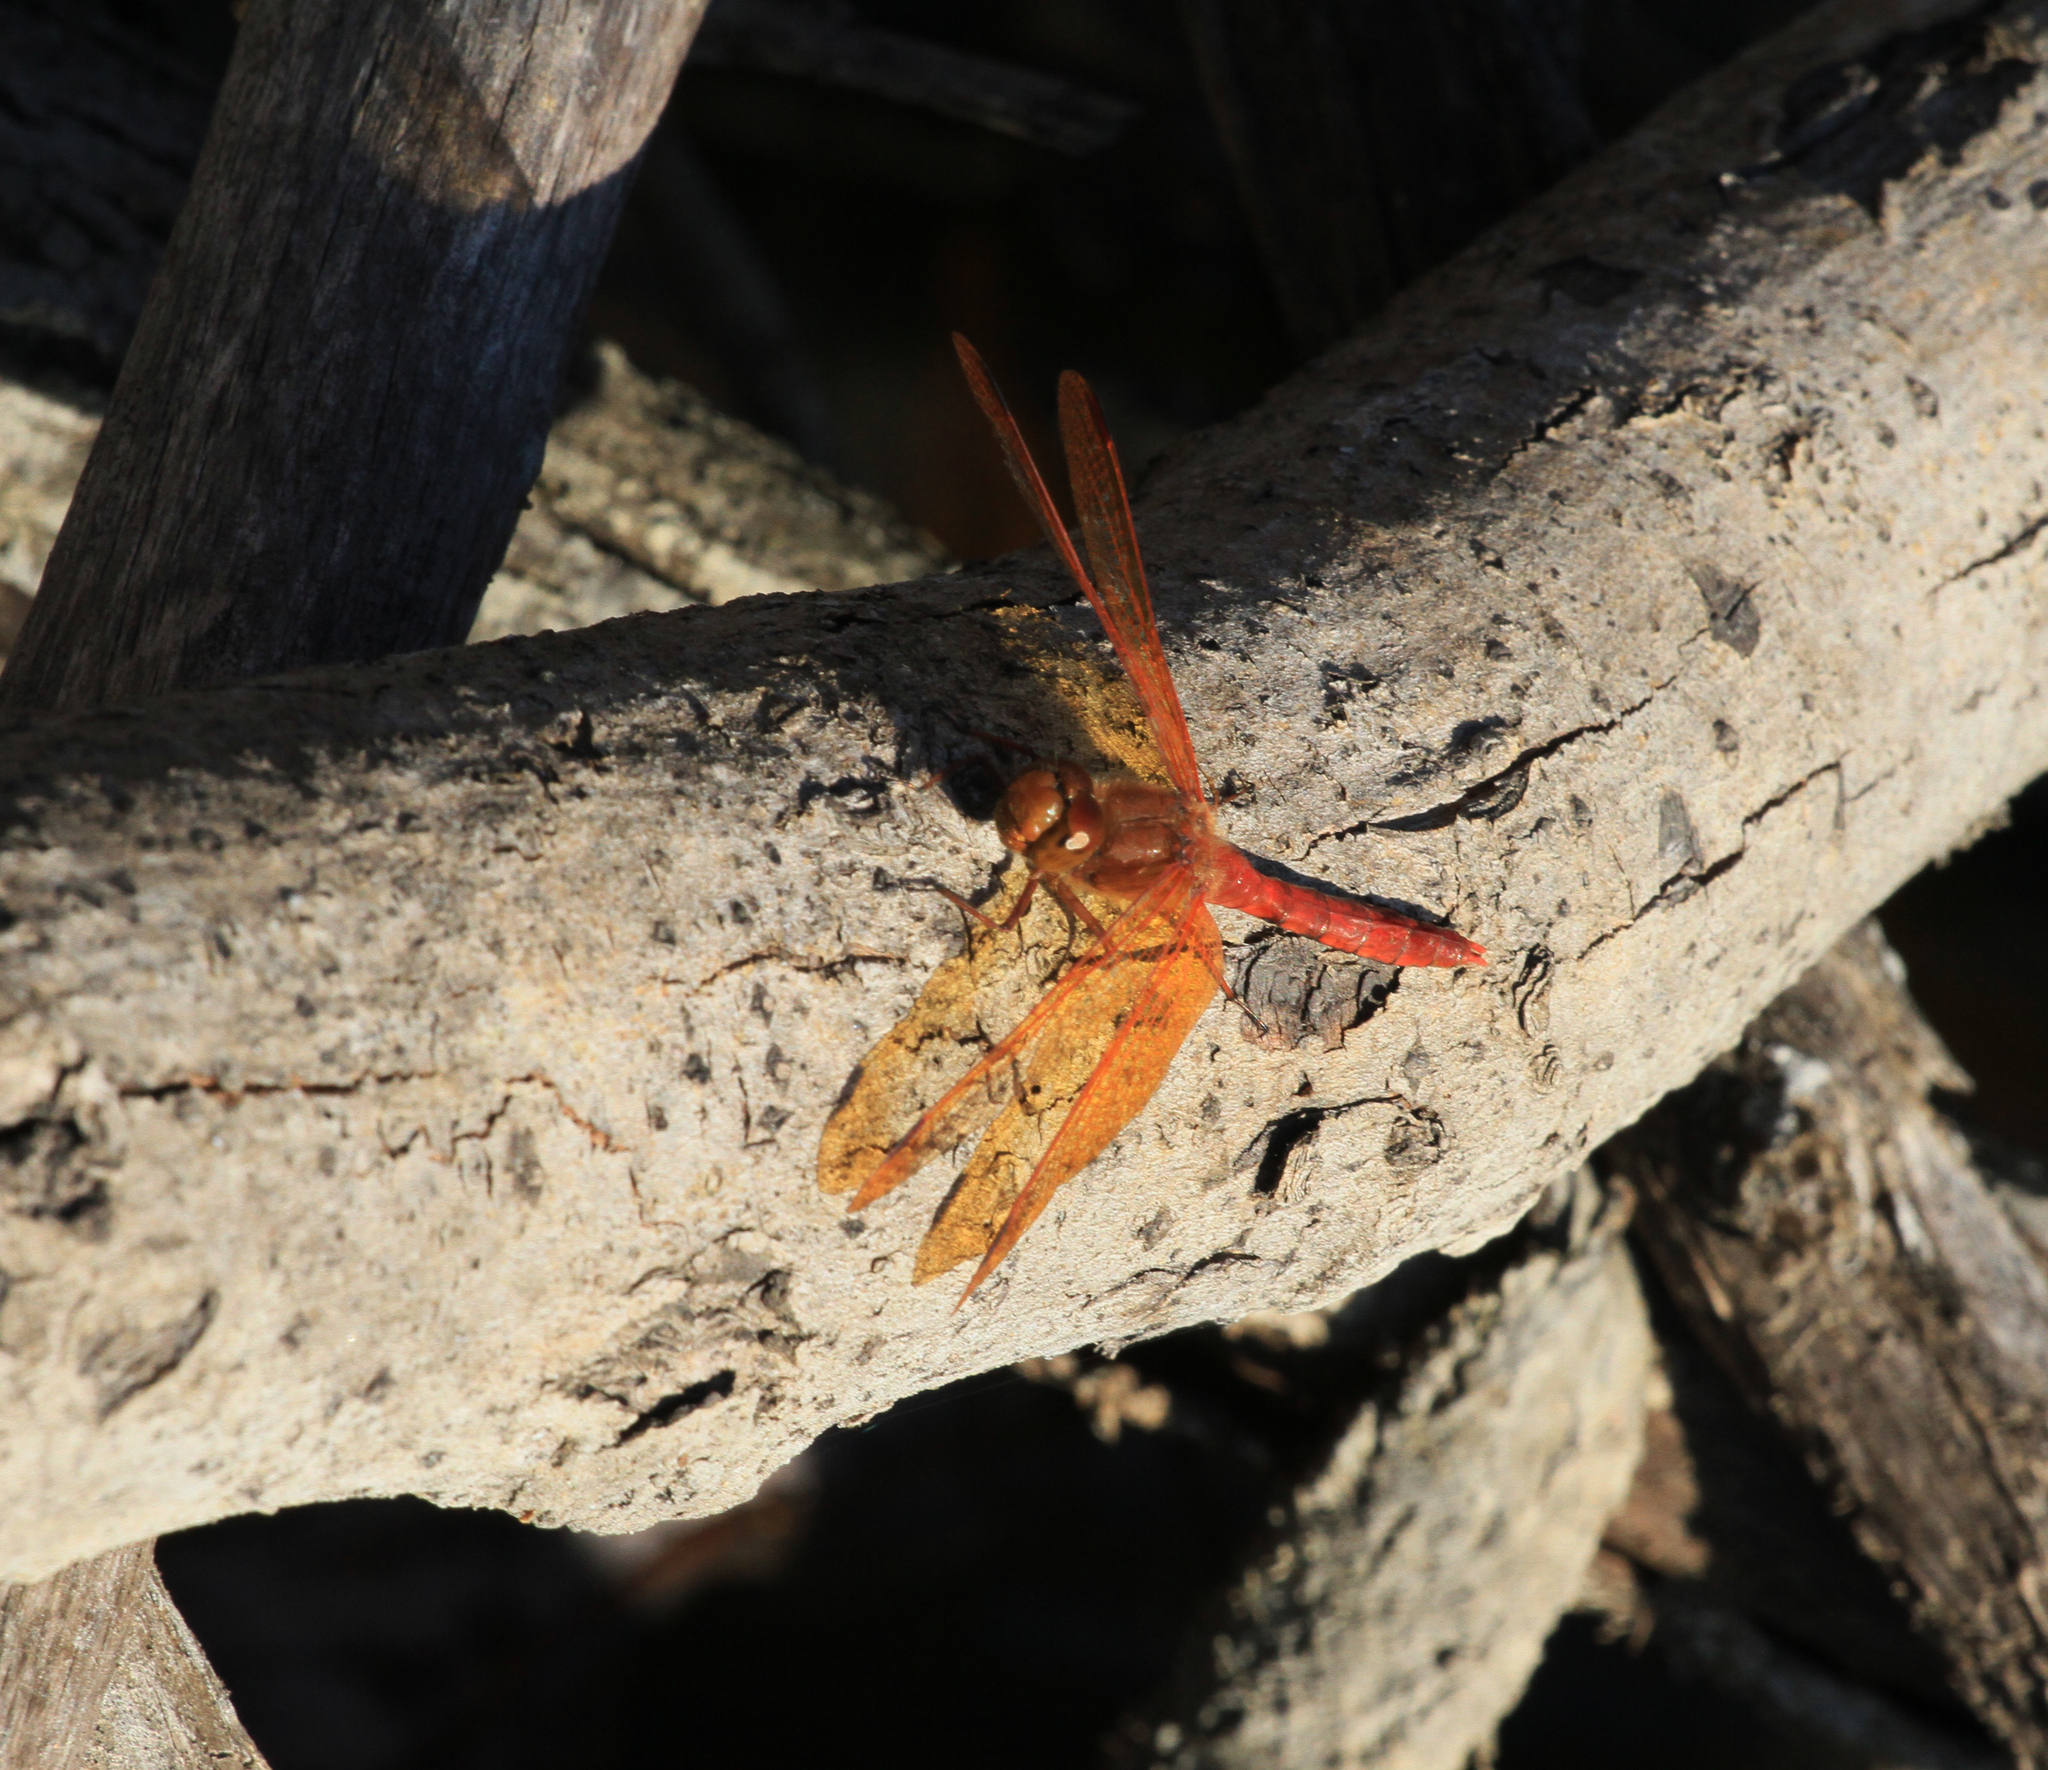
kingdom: Animalia
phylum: Arthropoda
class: Insecta
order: Odonata
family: Libellulidae
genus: Sympetrum
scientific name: Sympetrum croceolum
